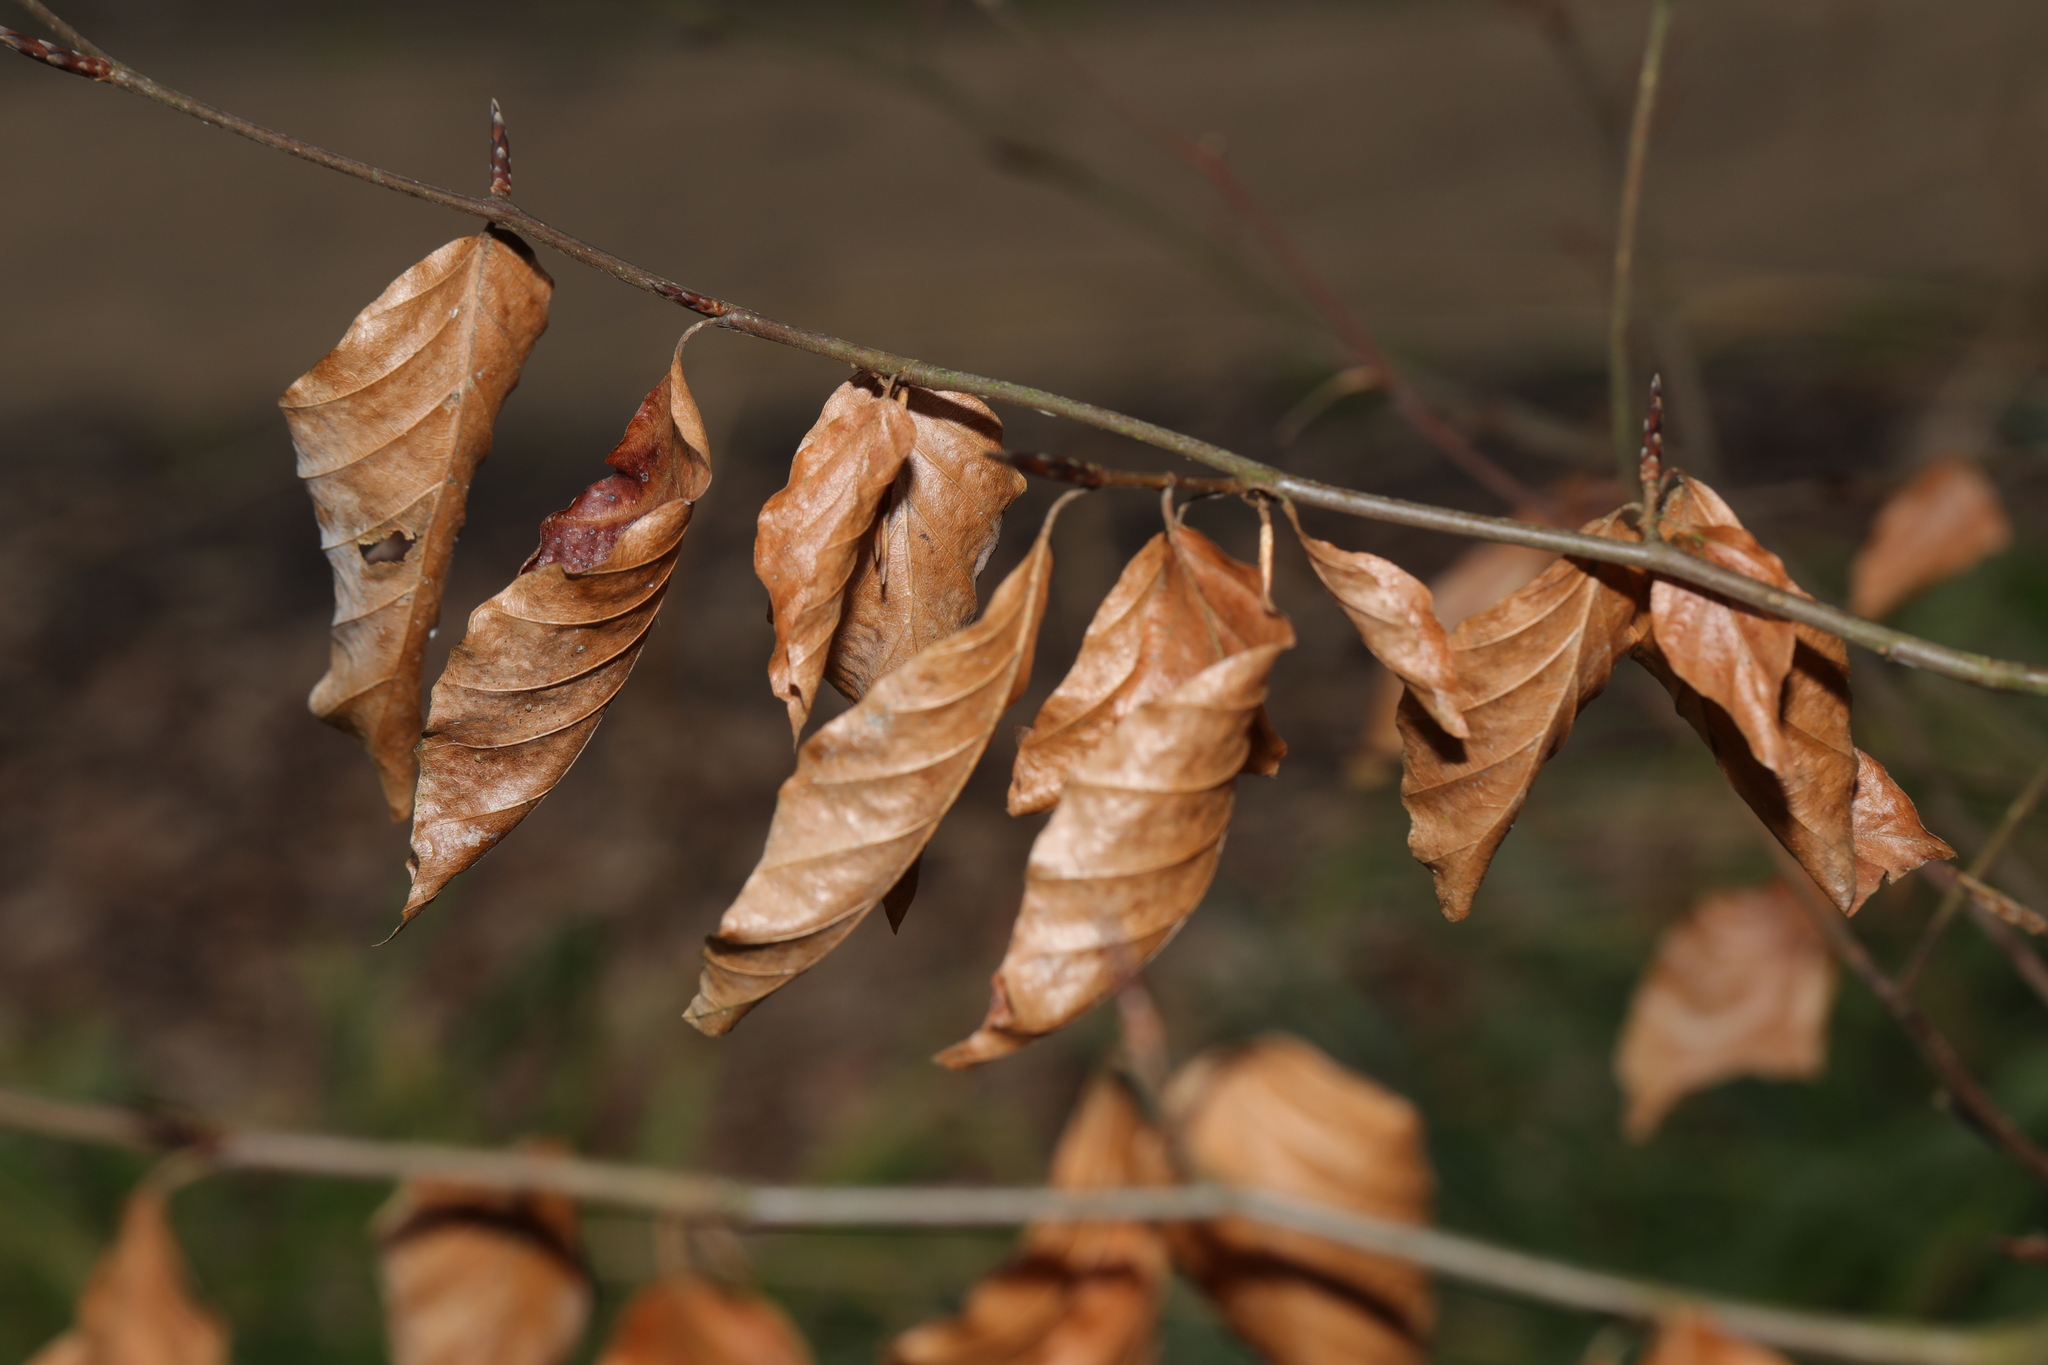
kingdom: Plantae
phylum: Tracheophyta
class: Magnoliopsida
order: Fagales
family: Fagaceae
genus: Fagus
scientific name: Fagus sylvatica
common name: Beech
